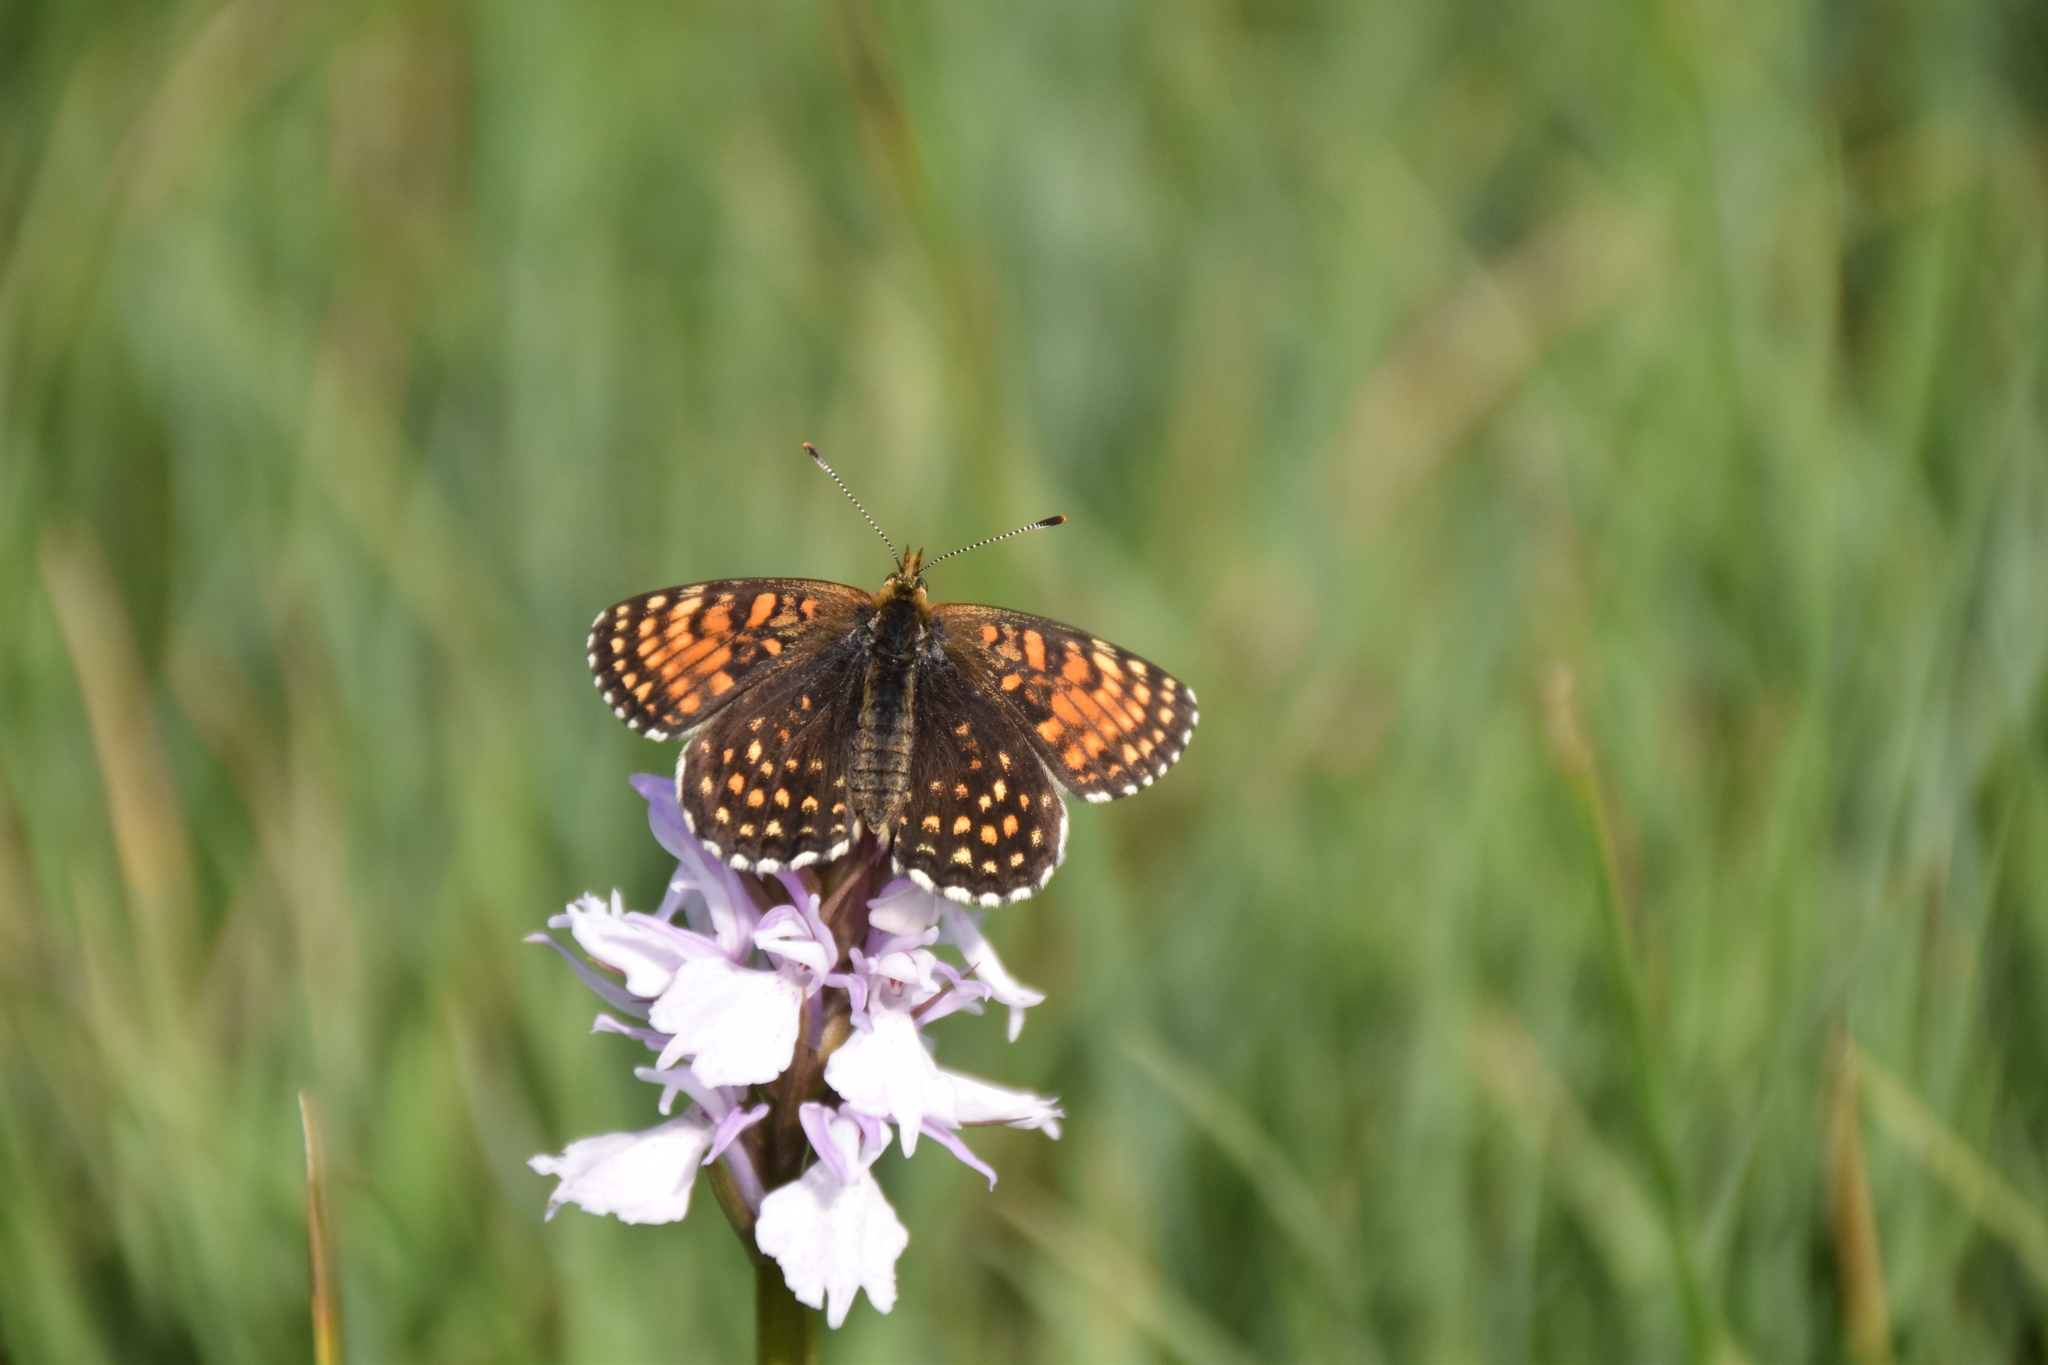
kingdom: Animalia
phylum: Arthropoda
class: Insecta
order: Lepidoptera
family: Nymphalidae
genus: Melitaea
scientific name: Melitaea diamina
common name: False heath fritillary
